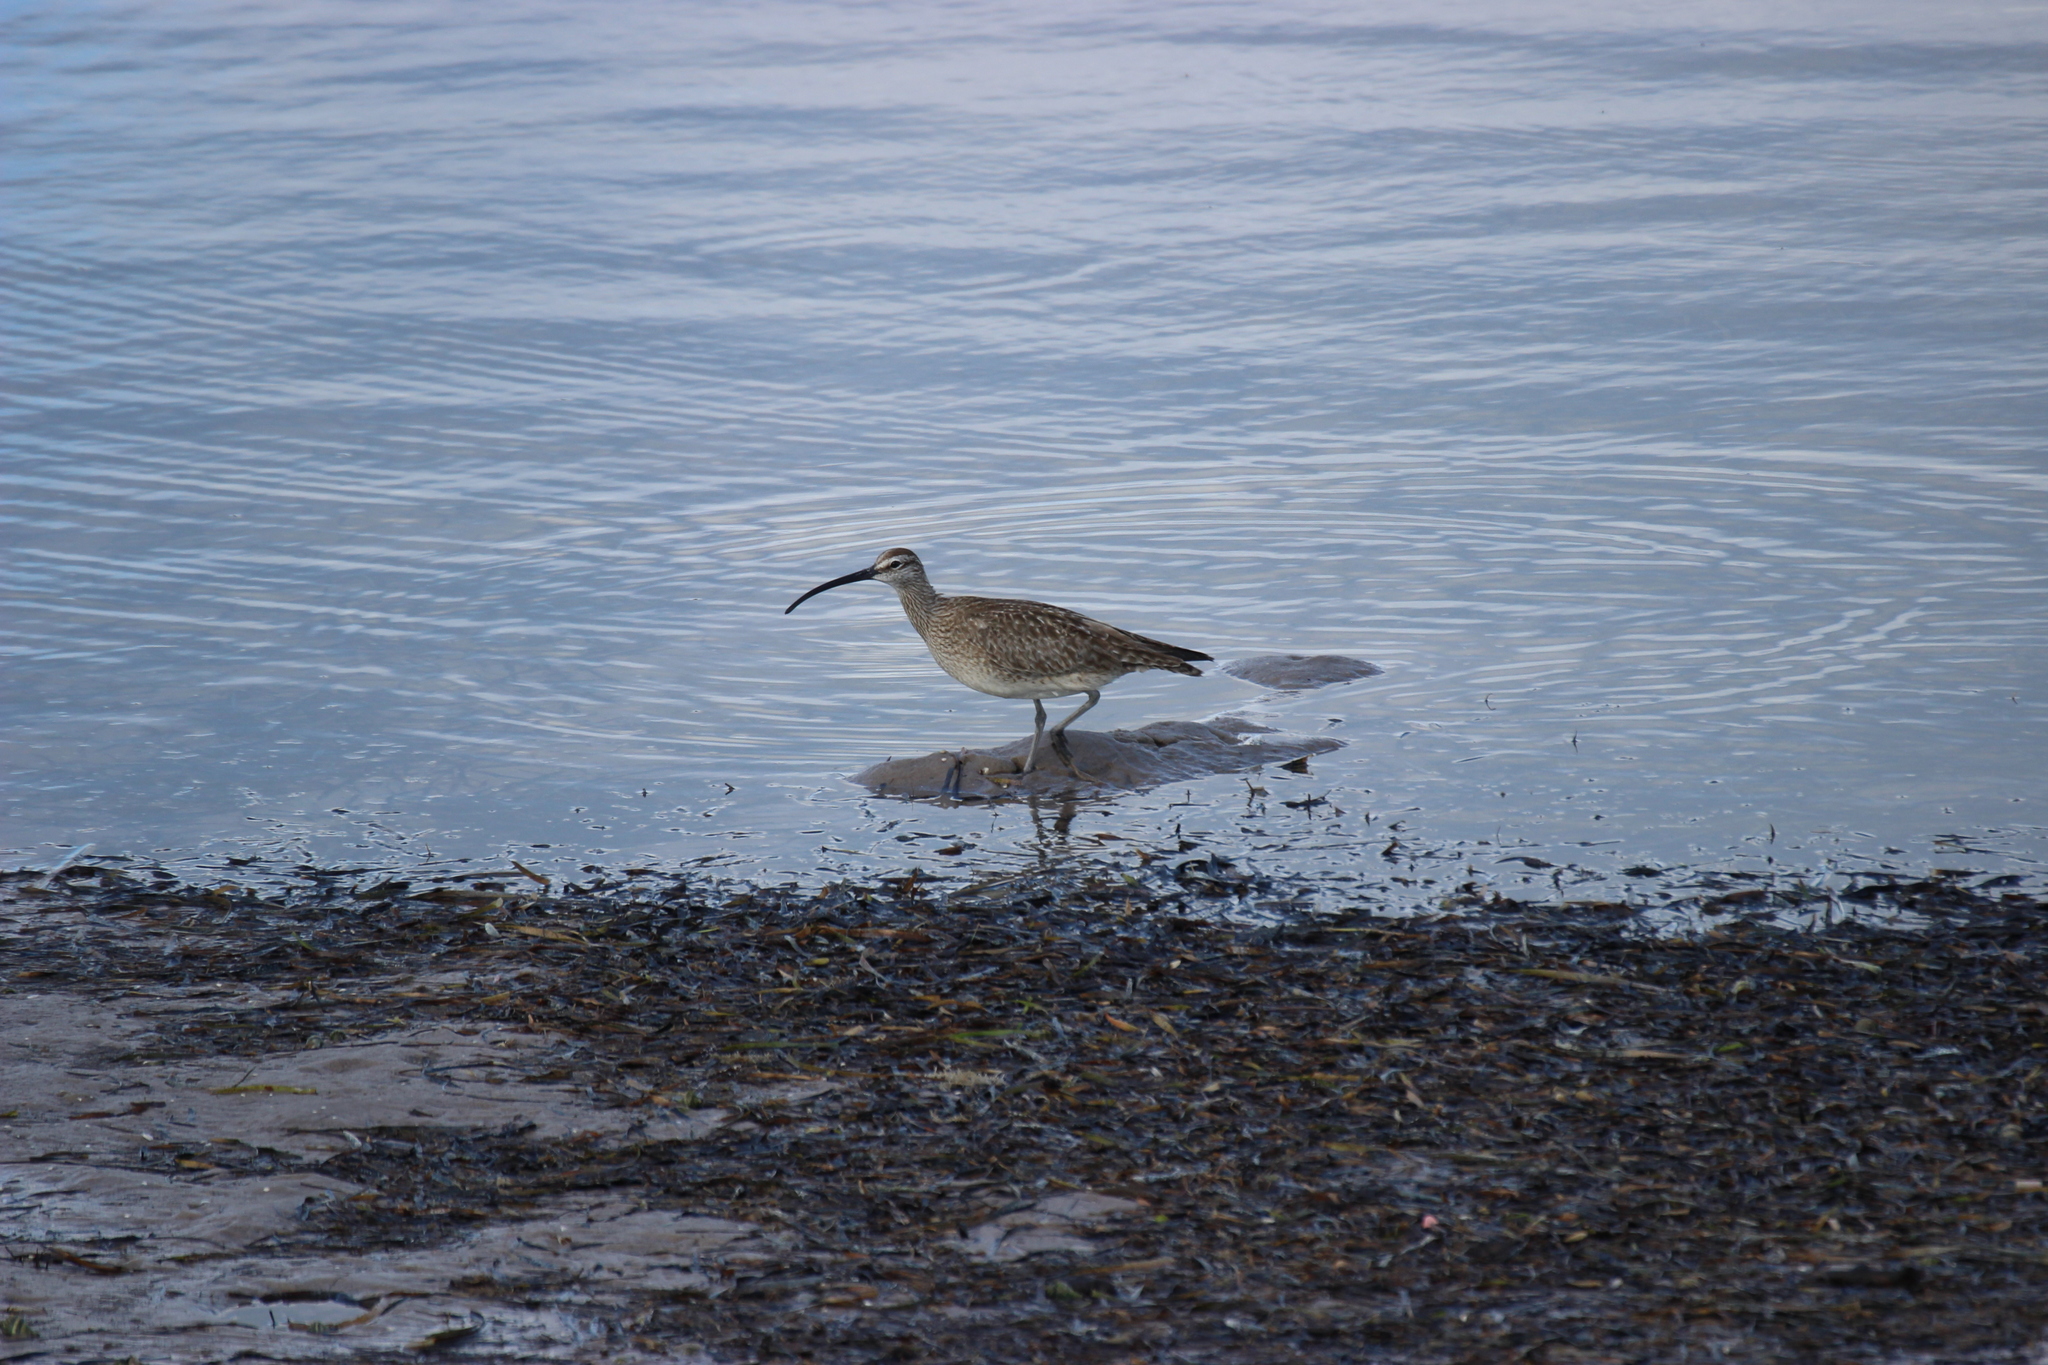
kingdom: Animalia
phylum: Chordata
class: Aves
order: Charadriiformes
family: Scolopacidae
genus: Numenius
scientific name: Numenius phaeopus
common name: Whimbrel
